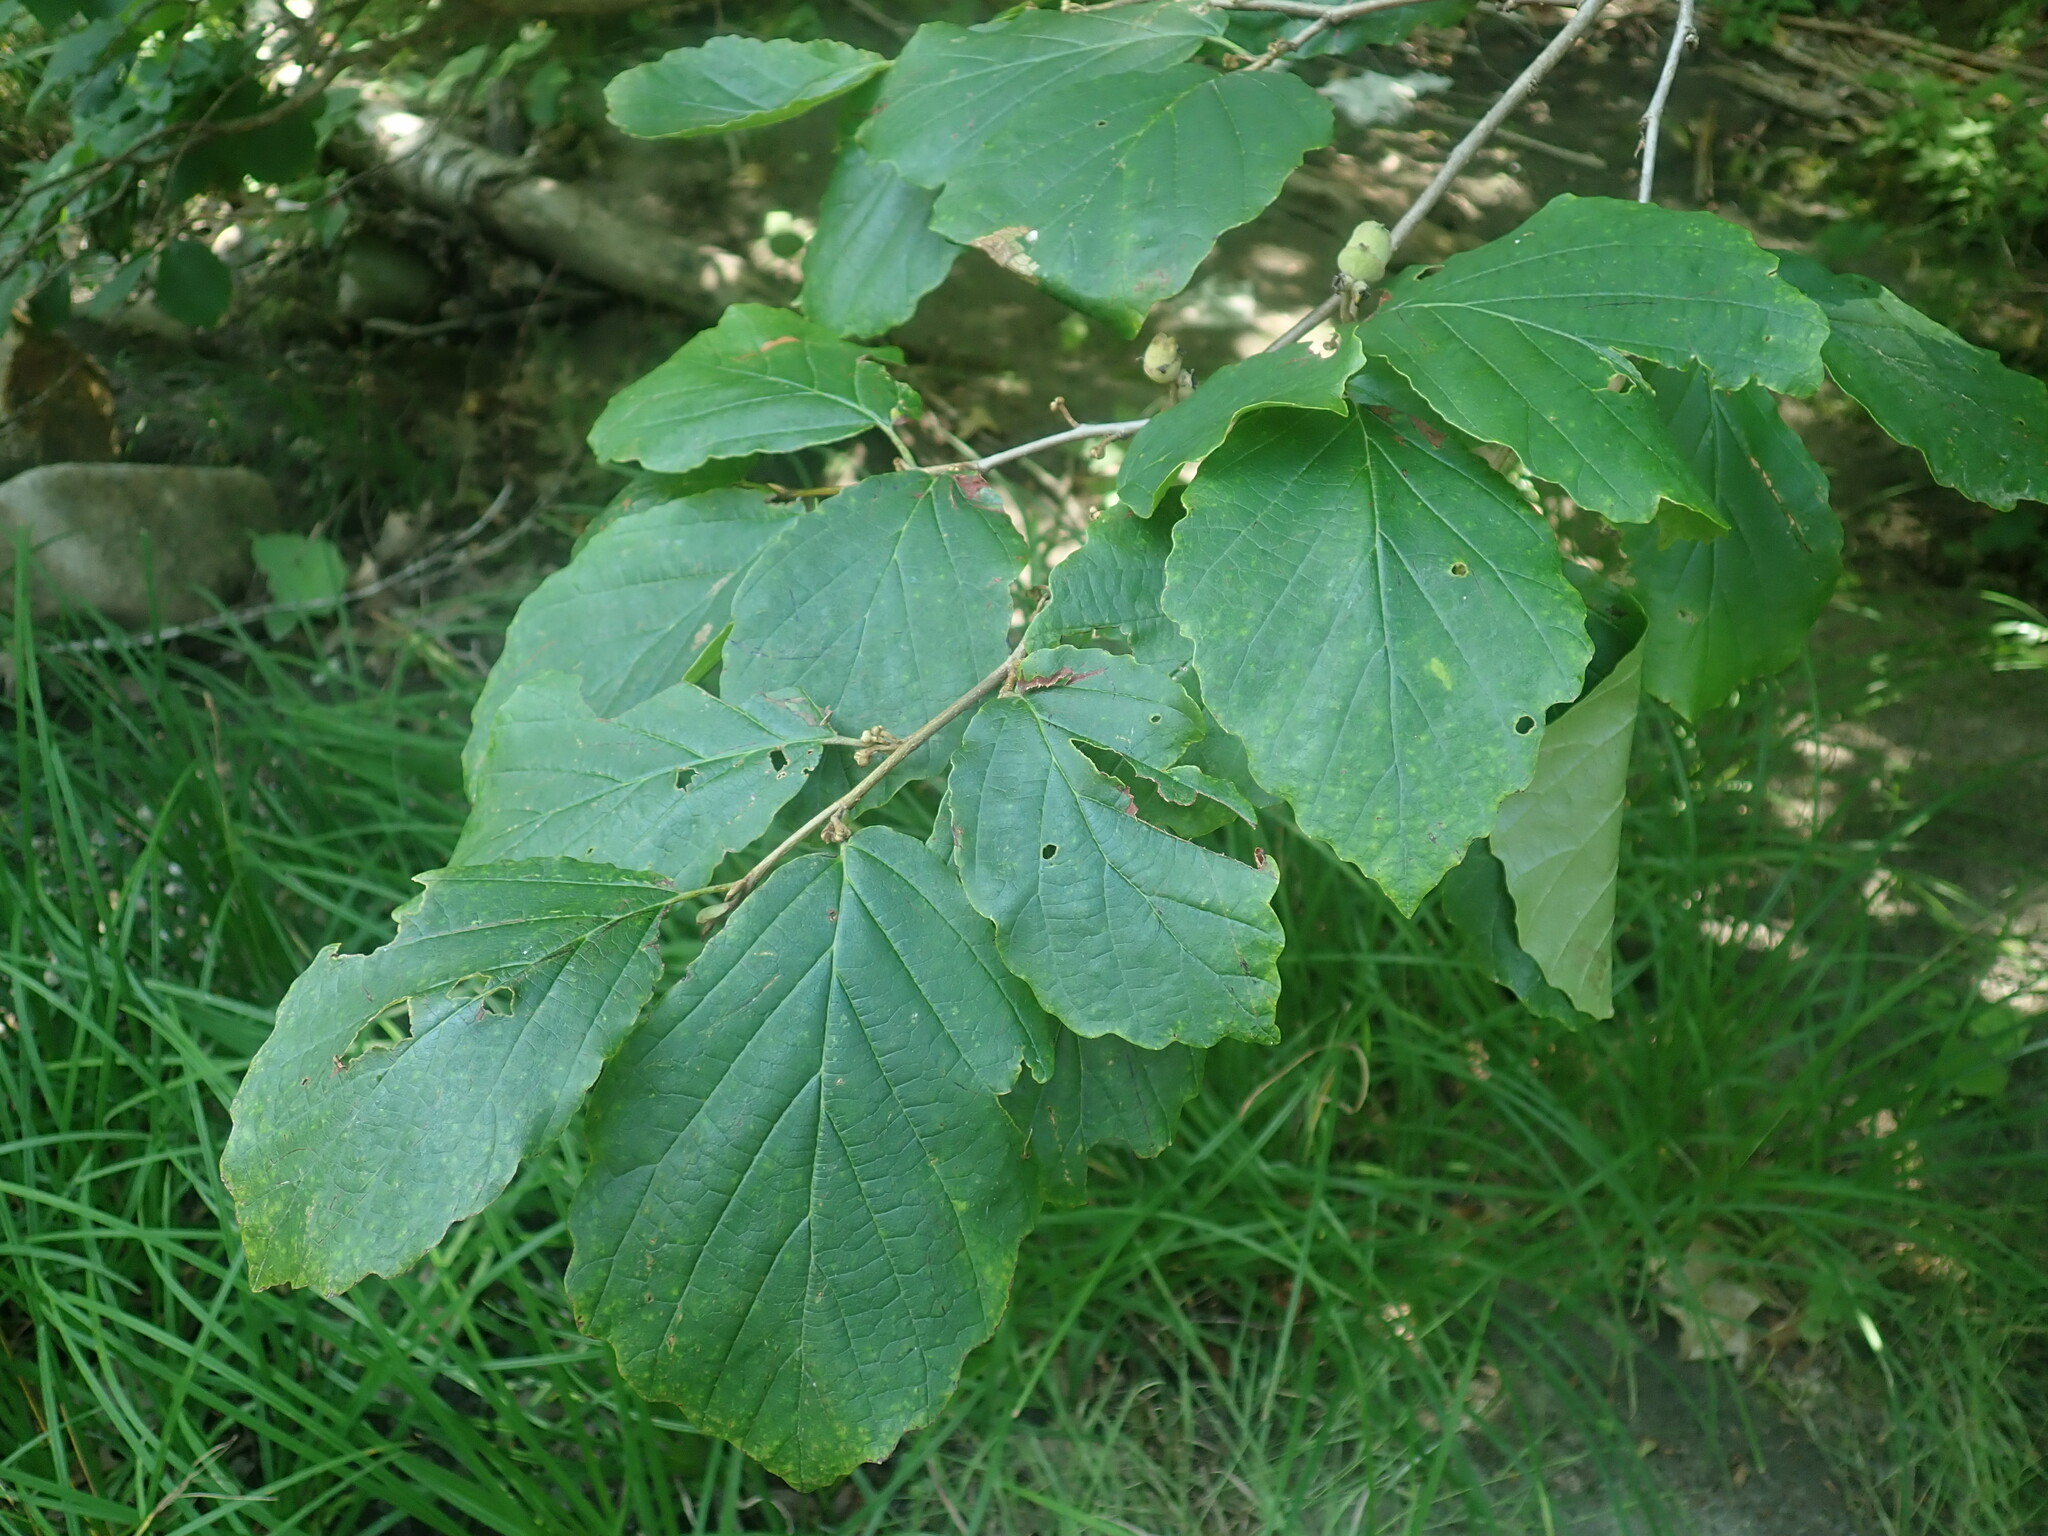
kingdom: Plantae
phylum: Tracheophyta
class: Magnoliopsida
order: Saxifragales
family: Hamamelidaceae
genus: Hamamelis
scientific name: Hamamelis virginiana
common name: Witch-hazel
